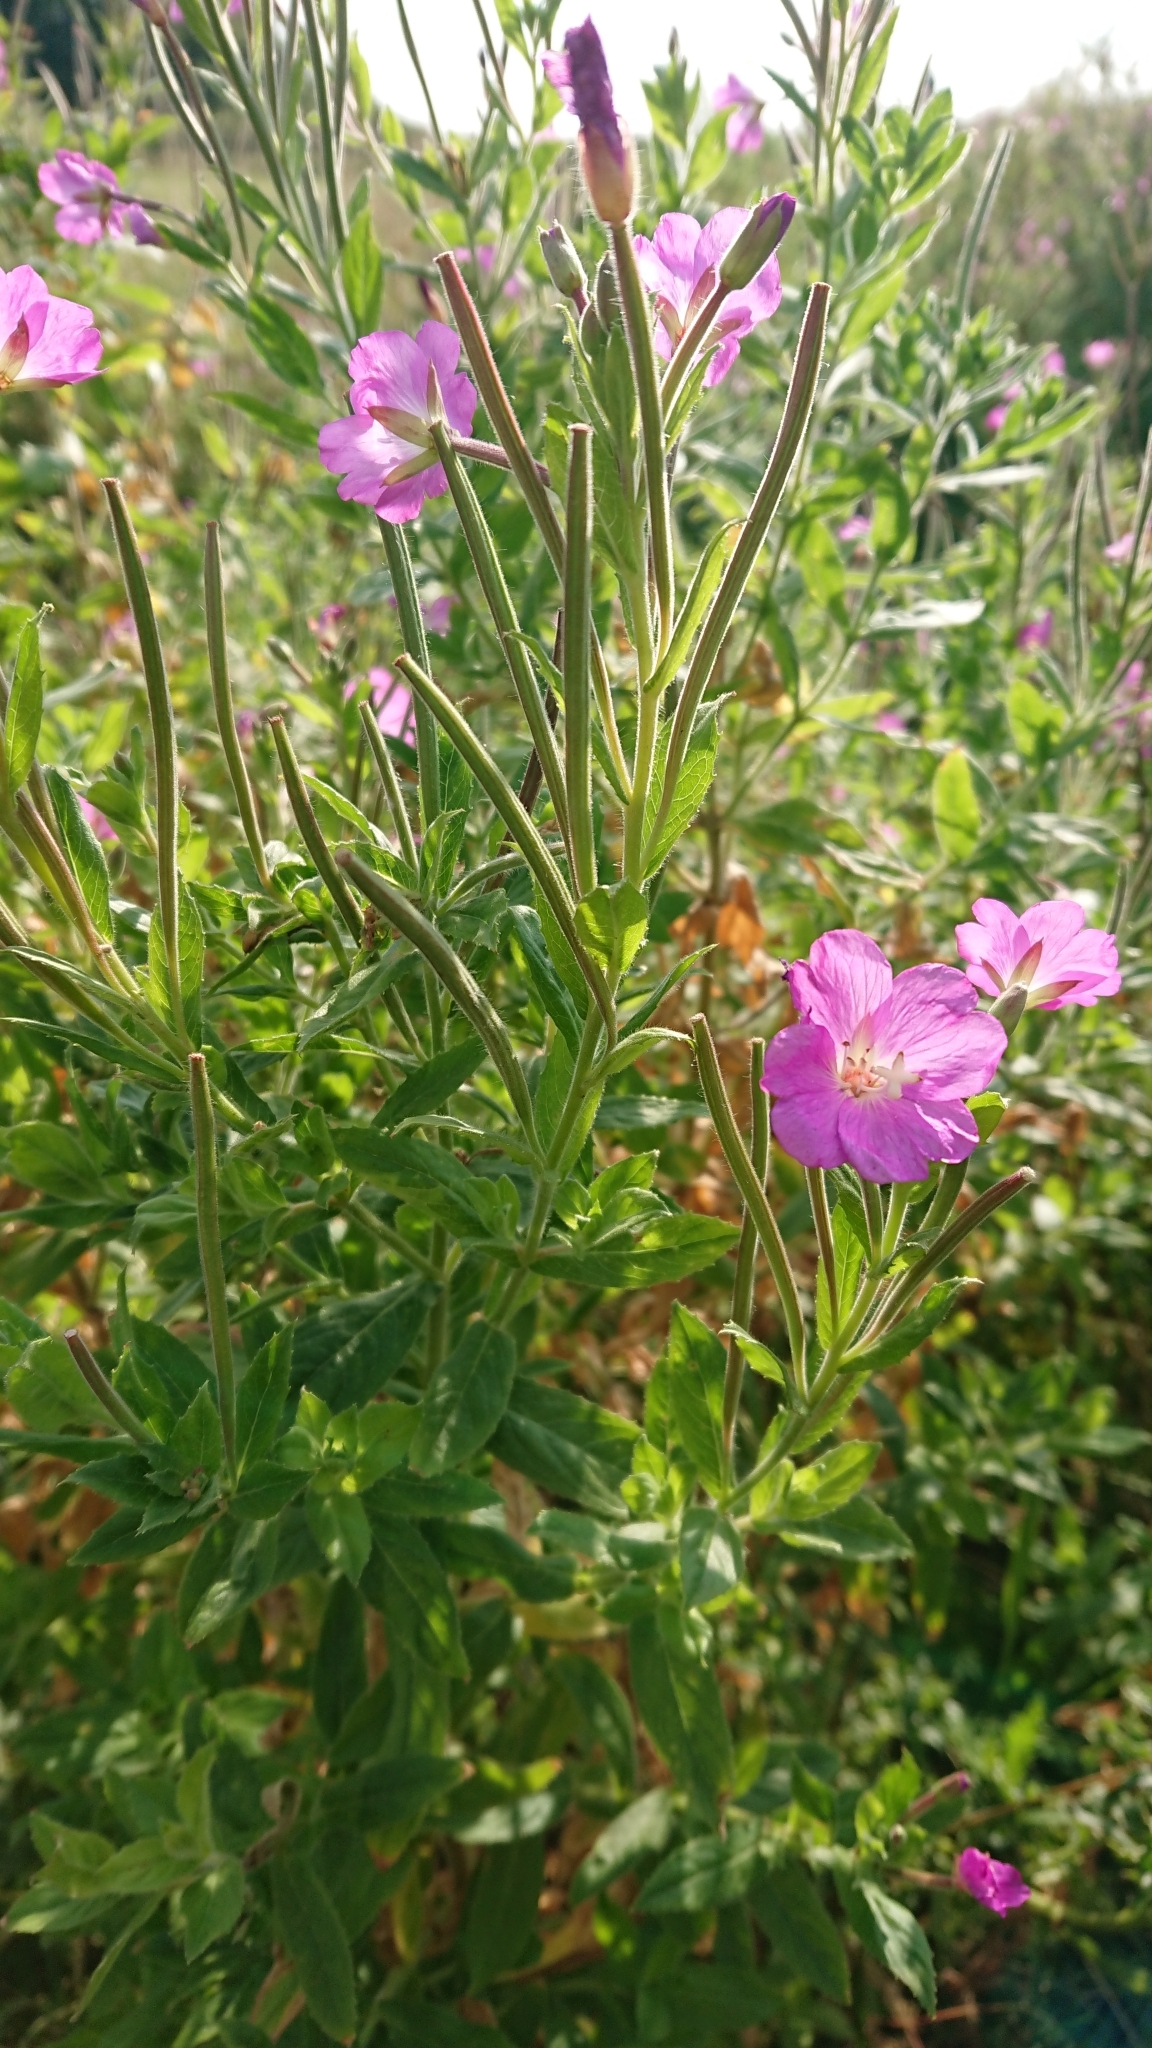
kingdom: Plantae
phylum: Tracheophyta
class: Magnoliopsida
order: Myrtales
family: Onagraceae
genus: Epilobium
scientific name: Epilobium hirsutum
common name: Great willowherb
